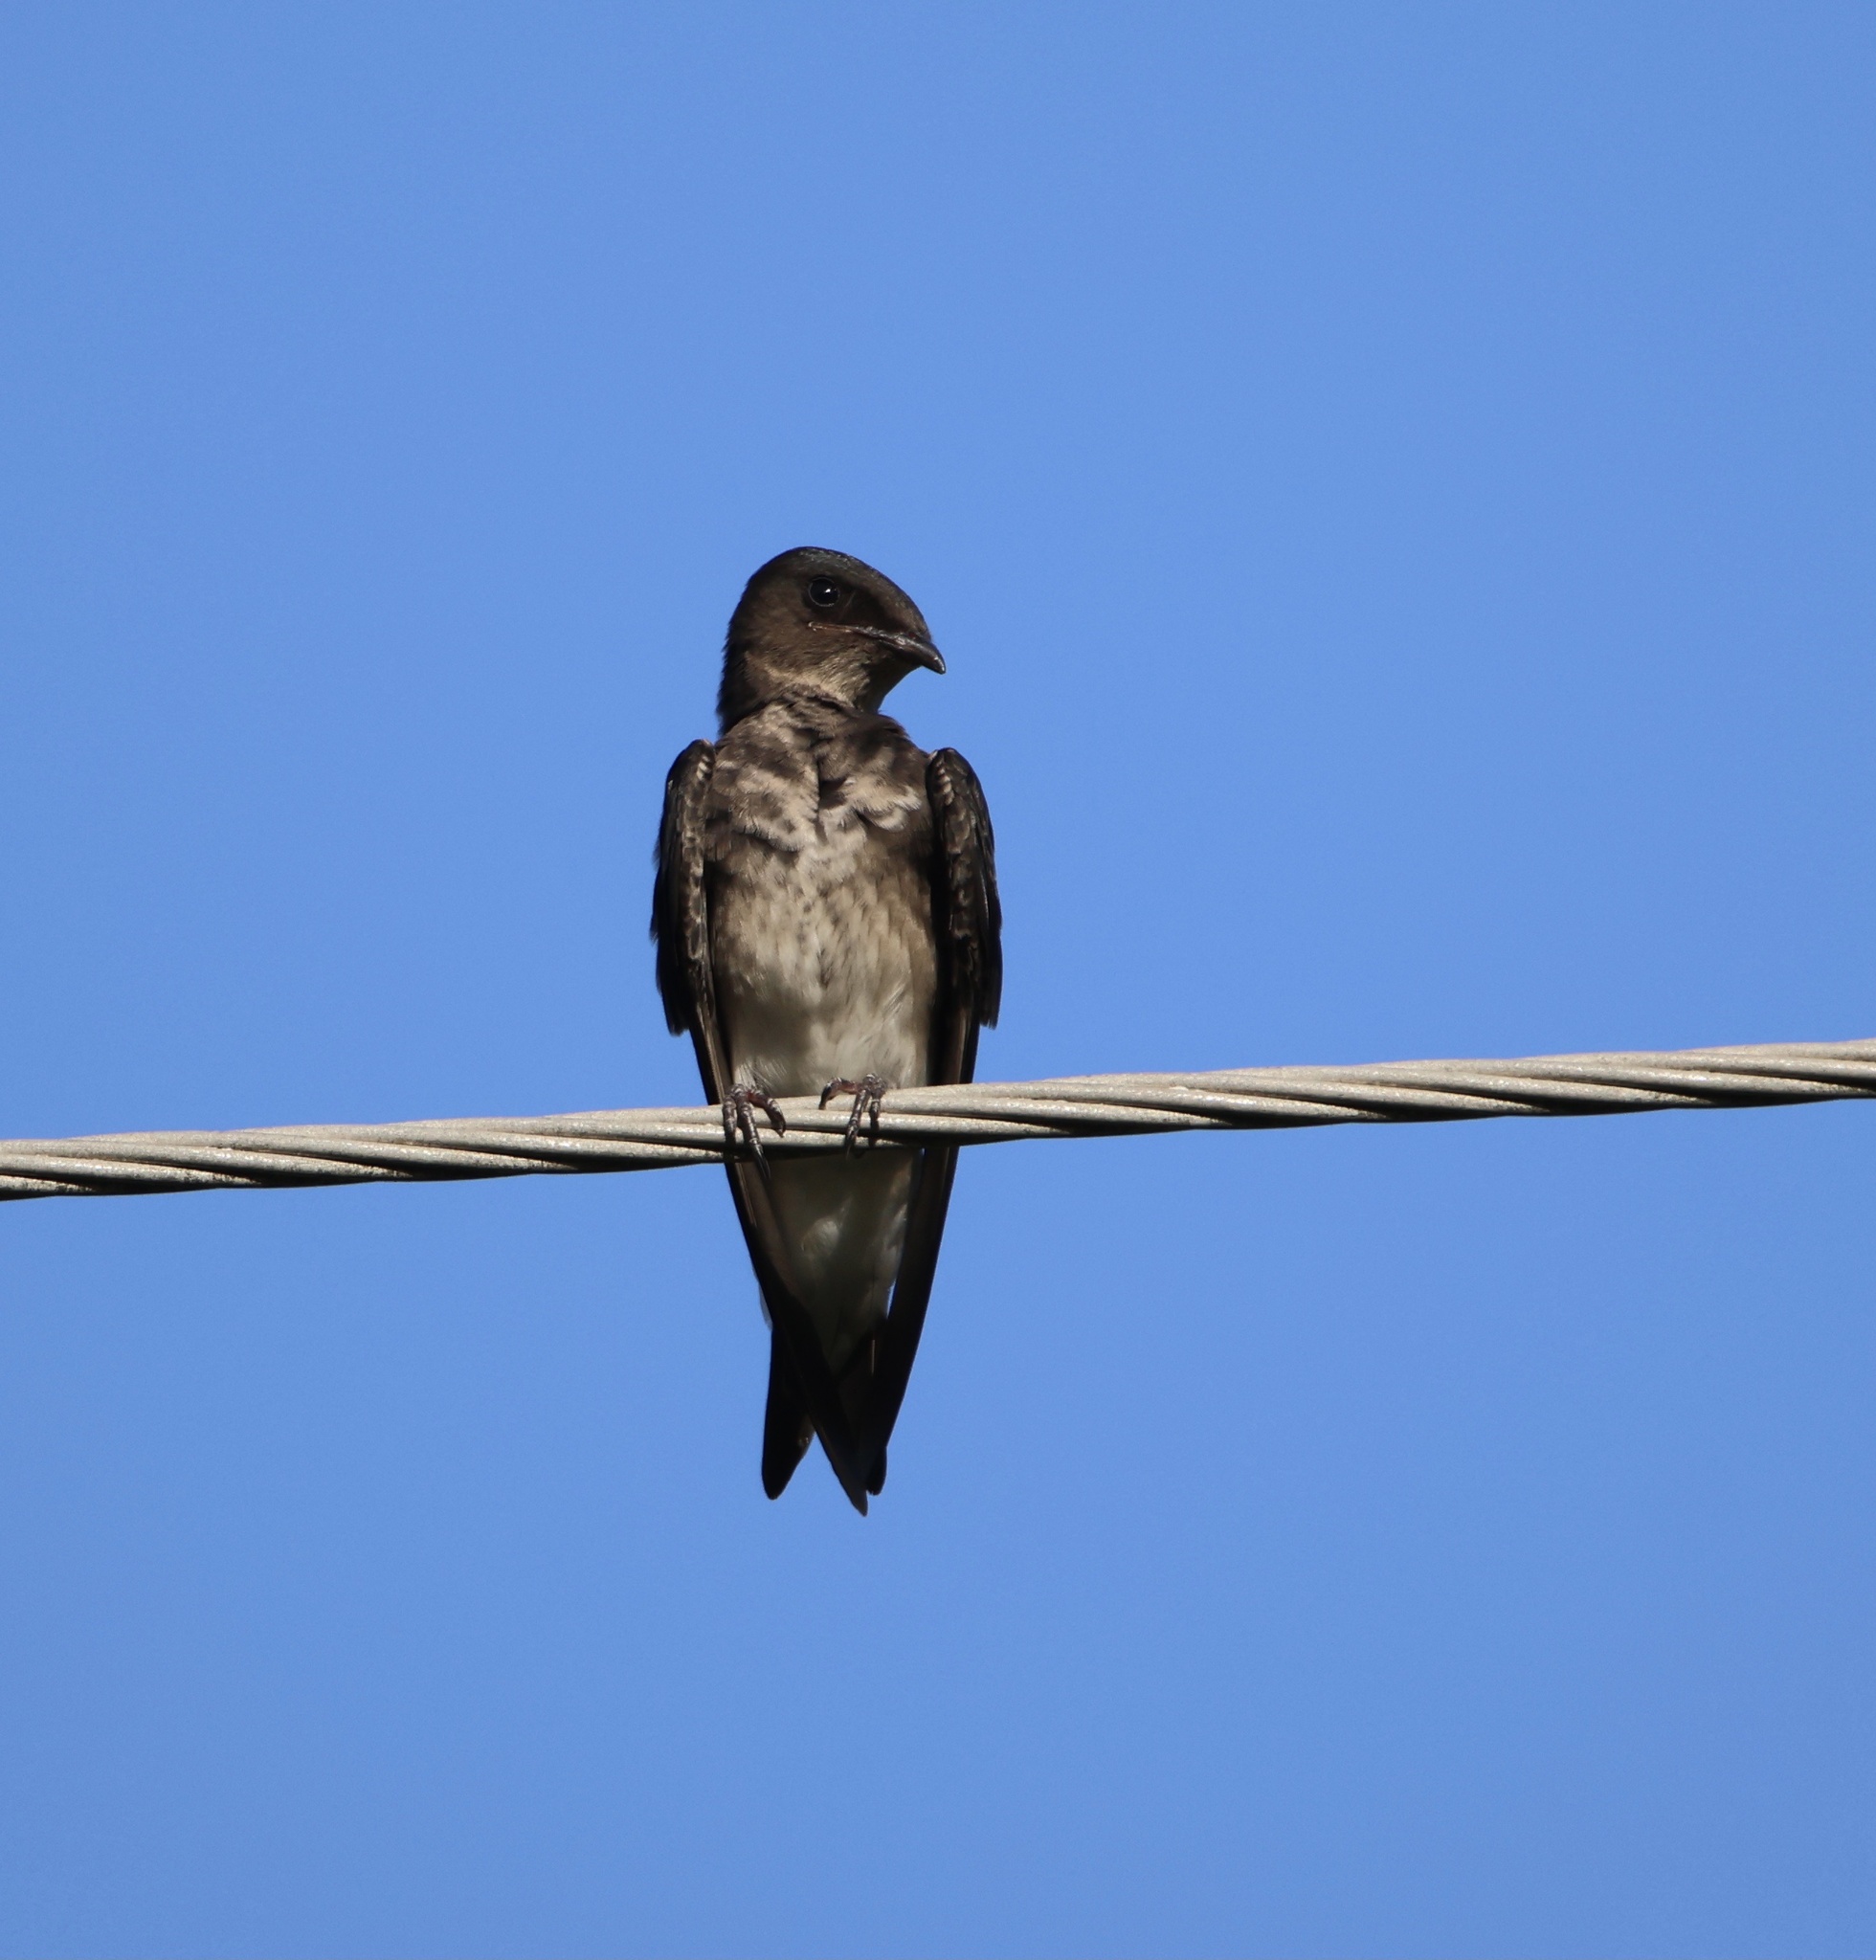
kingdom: Animalia
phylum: Chordata
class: Aves
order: Passeriformes
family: Hirundinidae
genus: Progne
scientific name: Progne chalybea
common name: Grey-breasted martin
